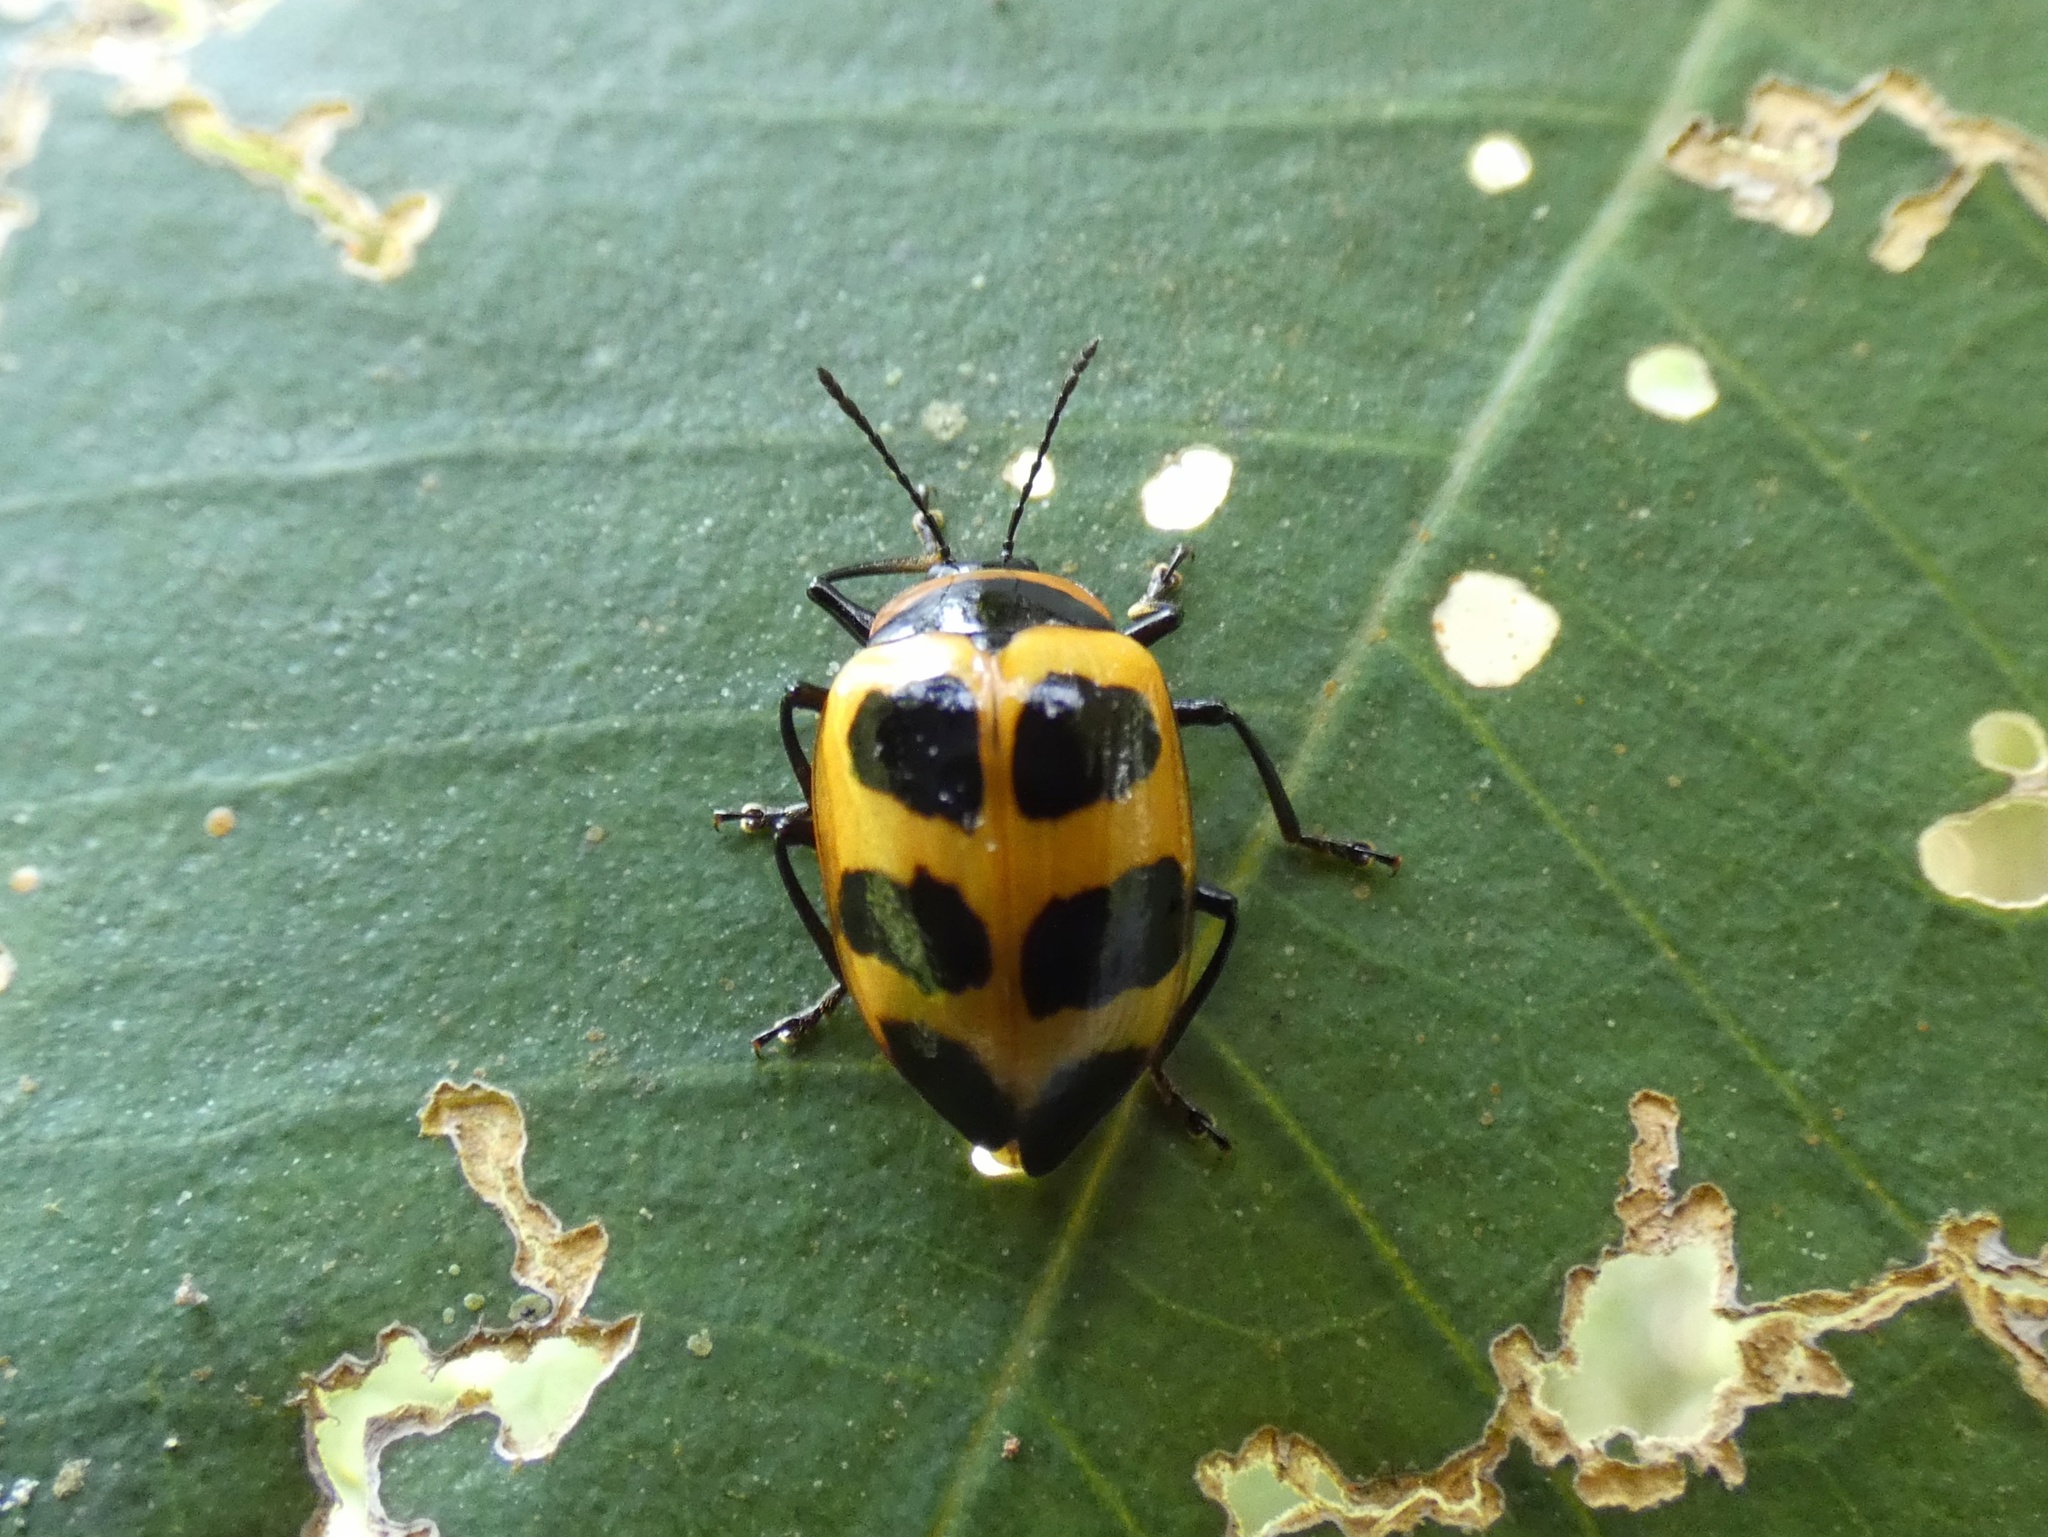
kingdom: Animalia
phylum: Arthropoda
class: Insecta
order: Coleoptera
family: Erotylidae
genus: Oligocorynus
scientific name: Oligocorynus
